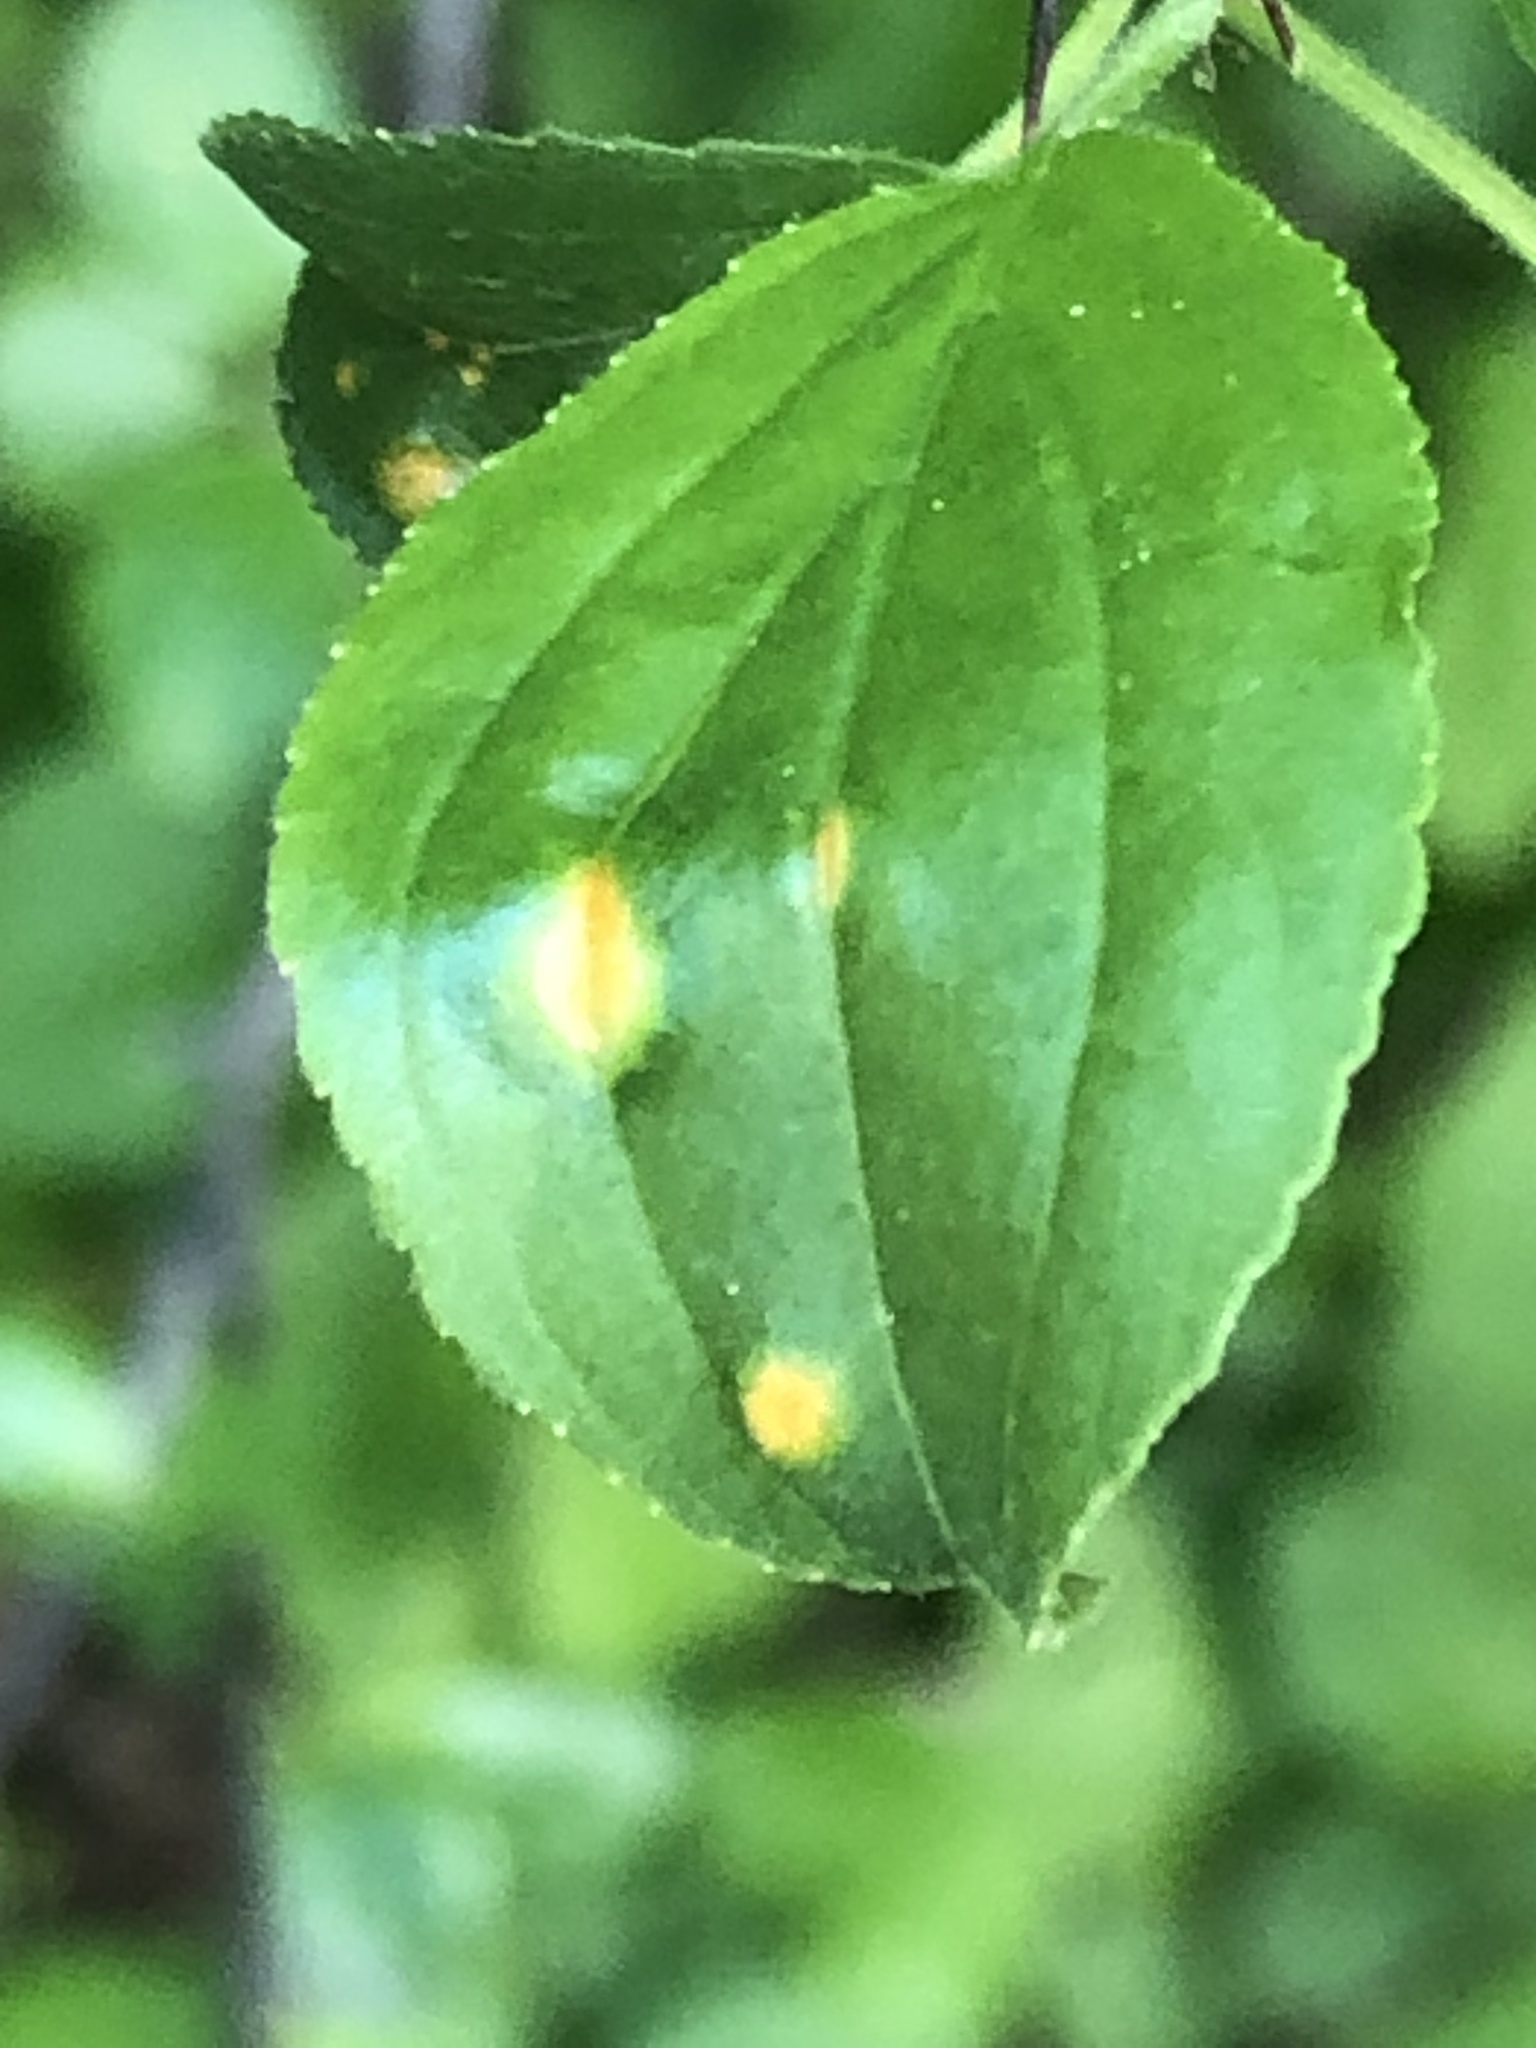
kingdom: Fungi
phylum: Basidiomycota
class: Pucciniomycetes
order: Pucciniales
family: Pucciniaceae
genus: Puccinia
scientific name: Puccinia coronata
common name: Crown rust
